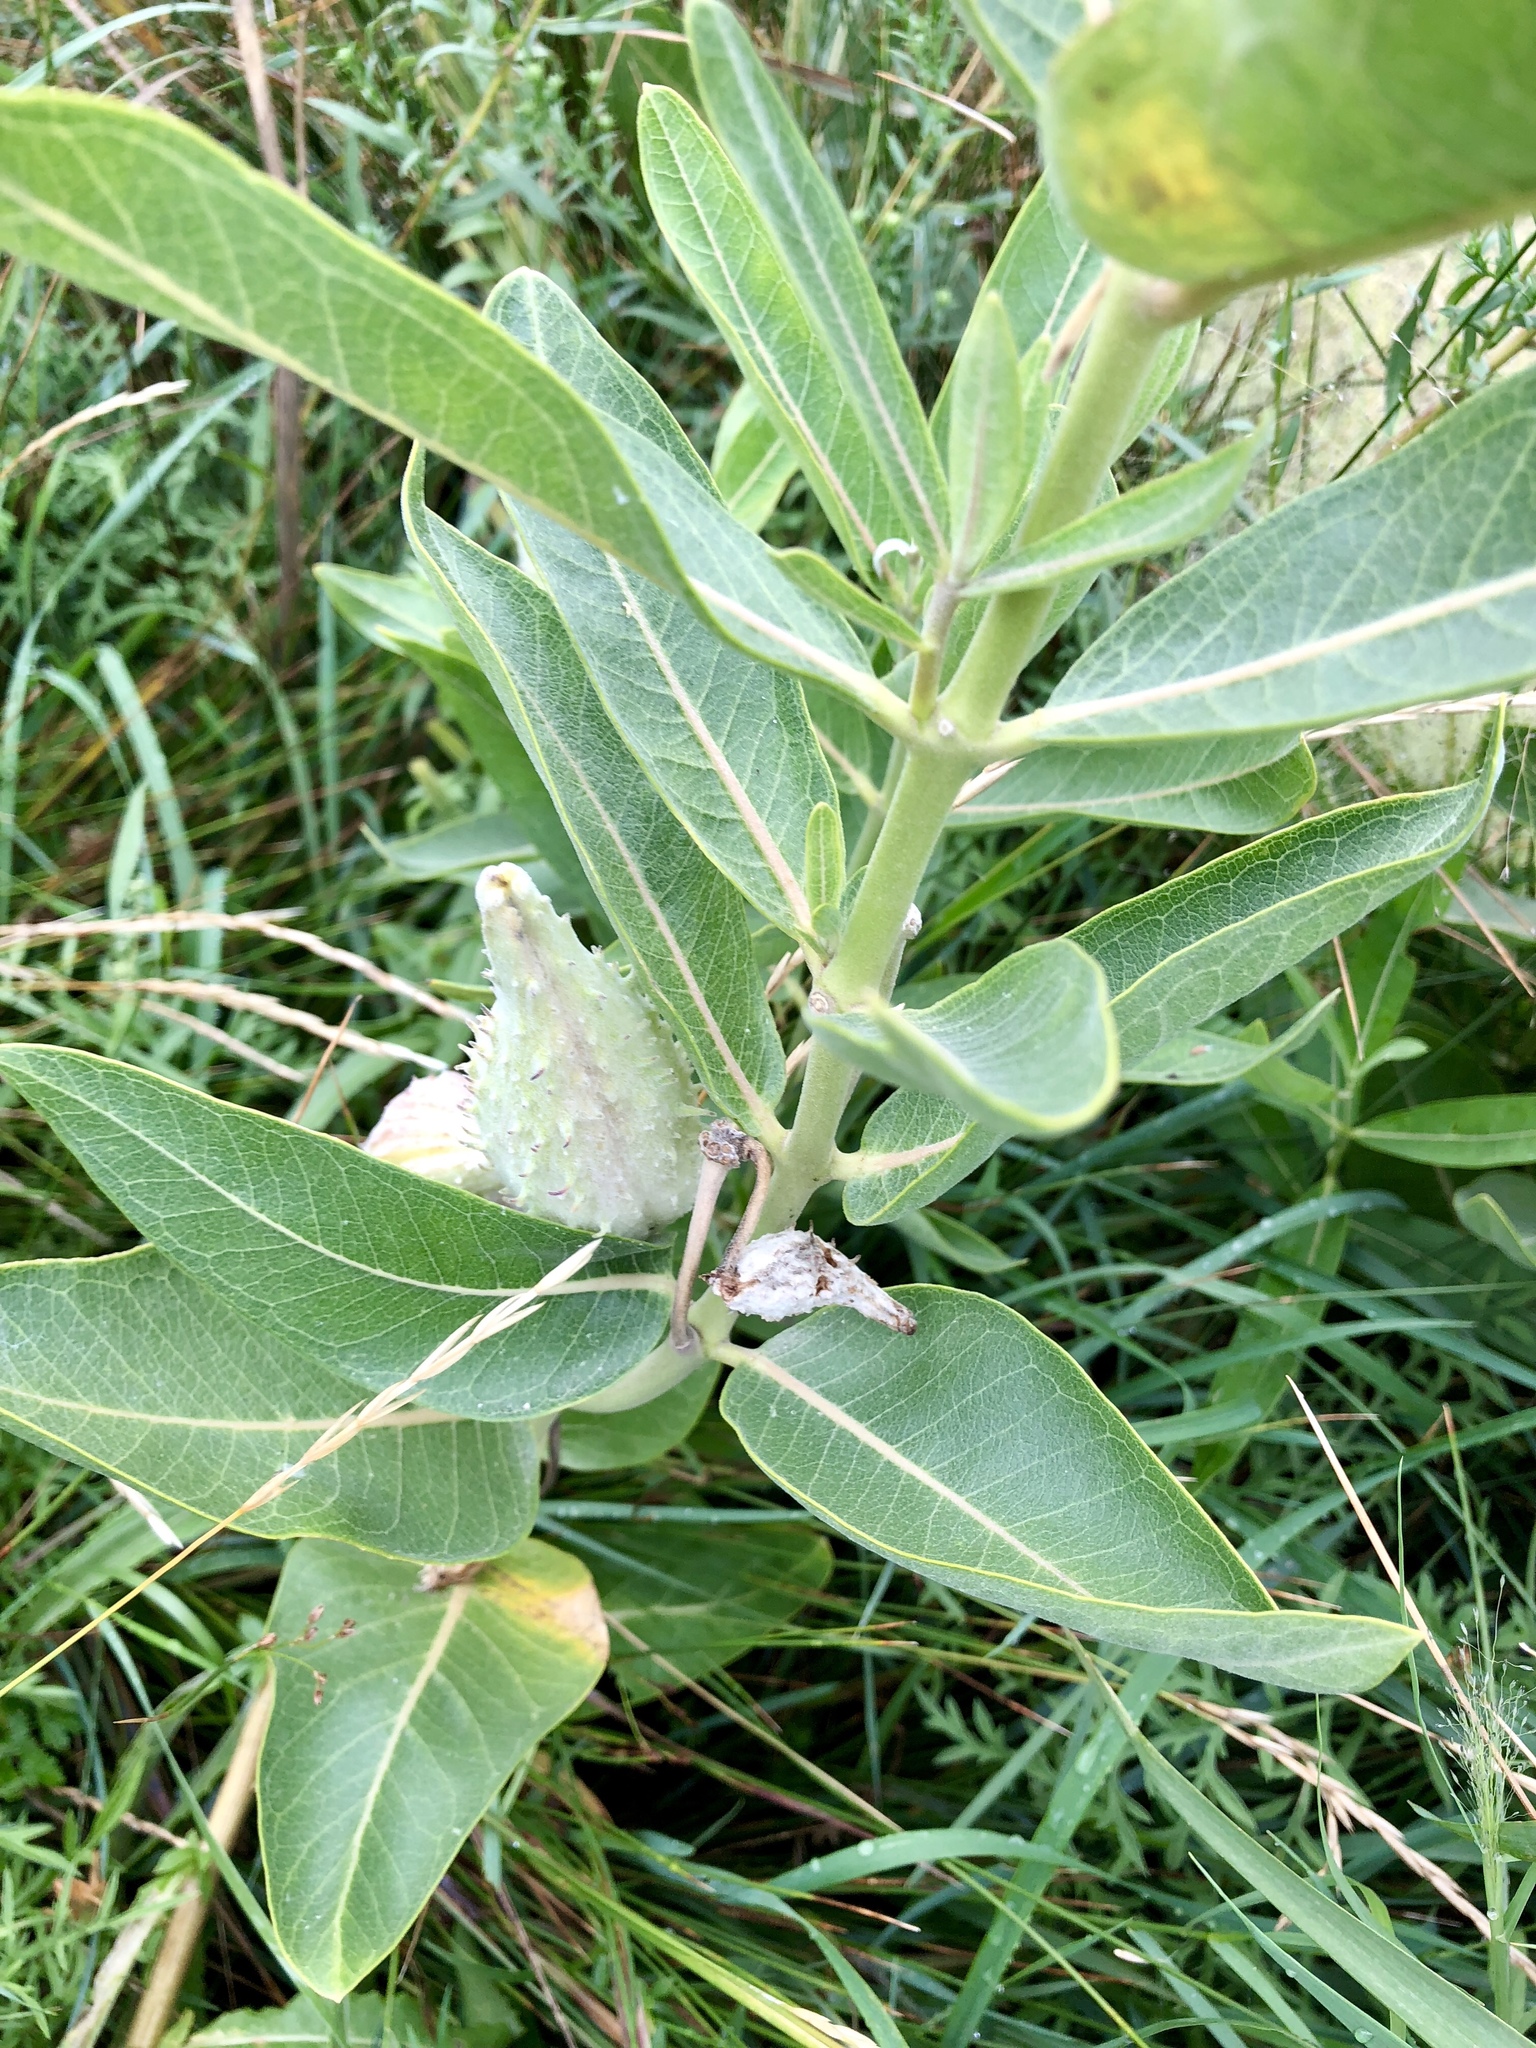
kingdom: Plantae
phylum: Tracheophyta
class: Magnoliopsida
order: Gentianales
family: Apocynaceae
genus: Asclepias
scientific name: Asclepias speciosa
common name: Showy milkweed
